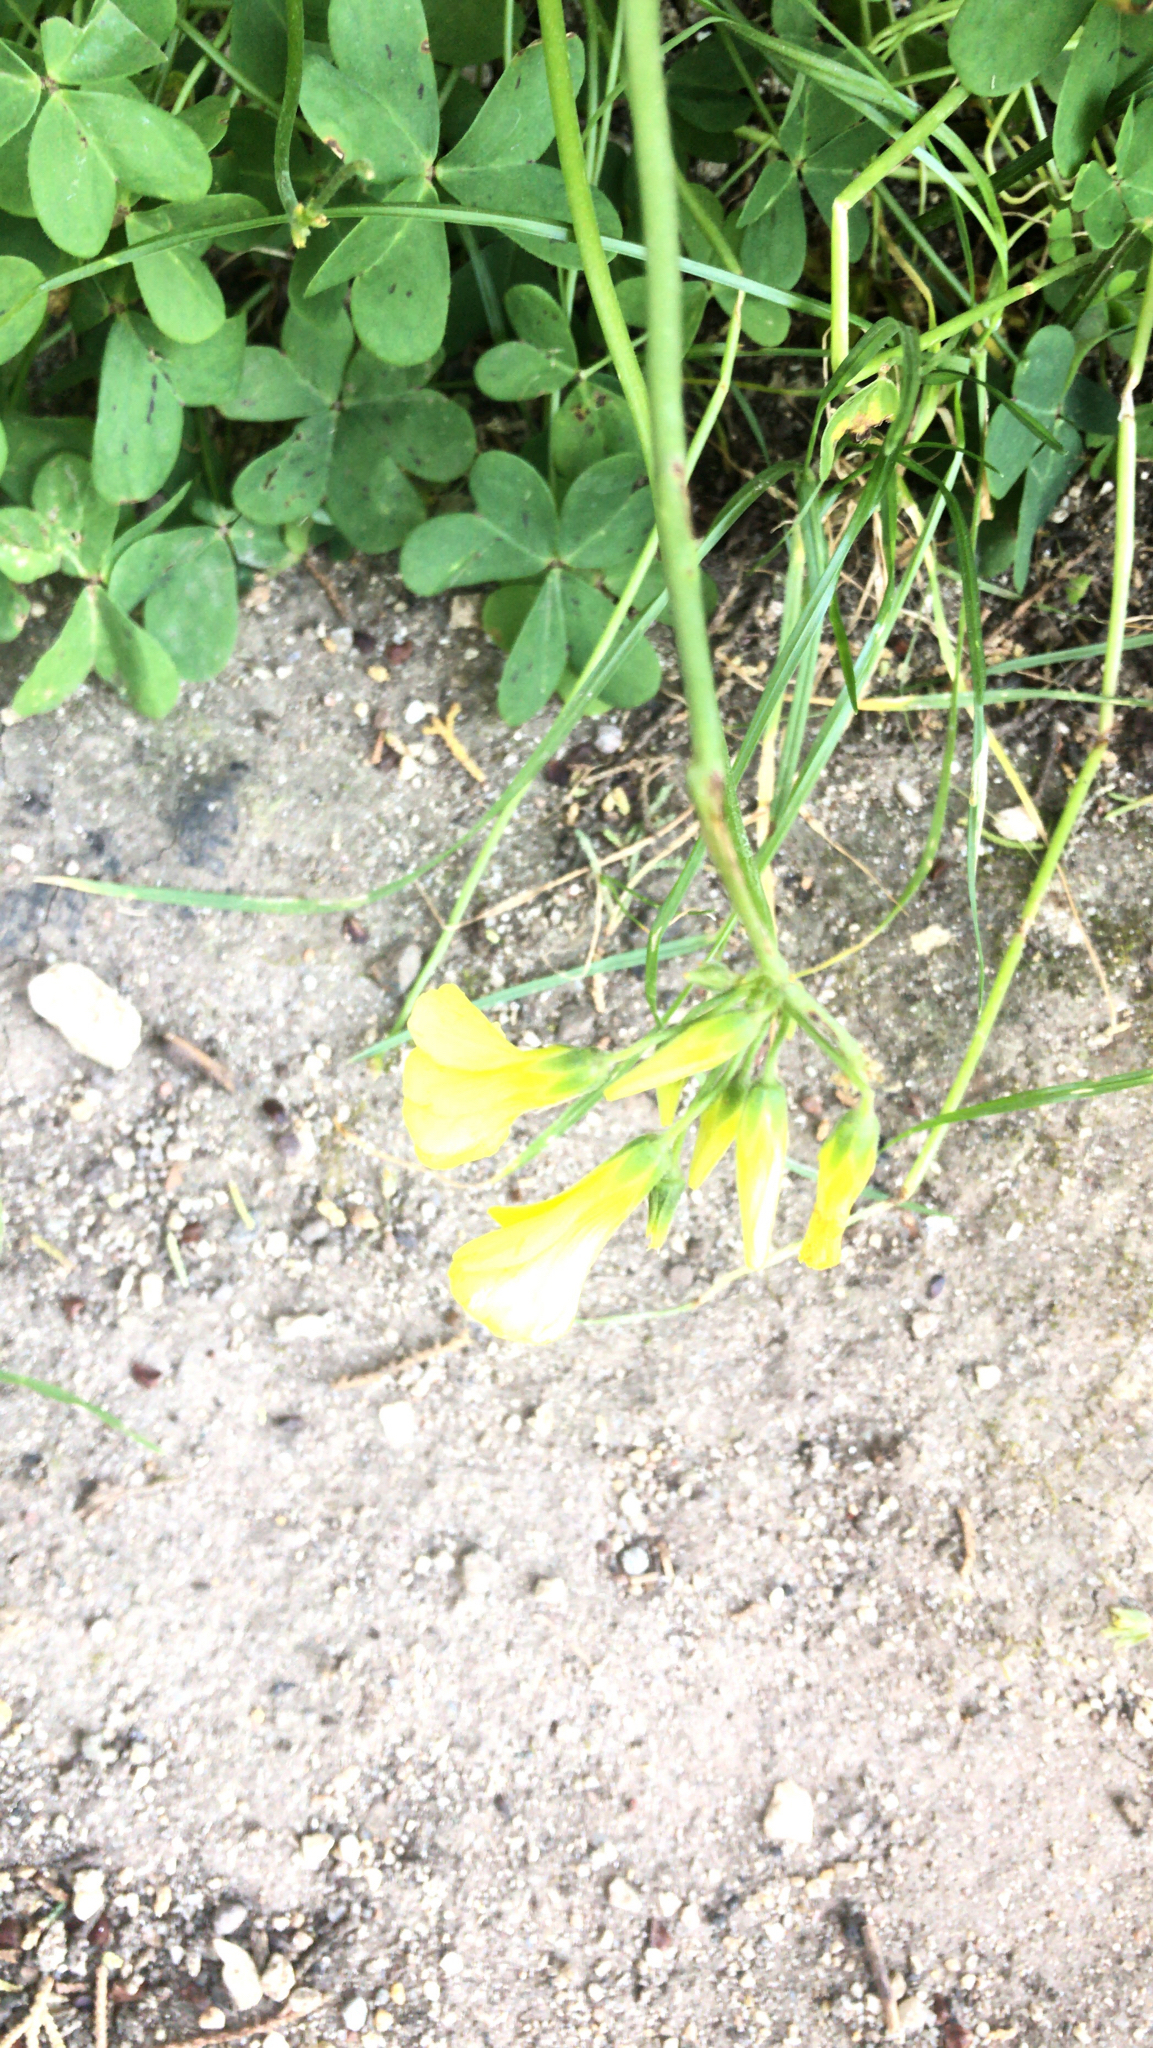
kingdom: Plantae
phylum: Tracheophyta
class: Magnoliopsida
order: Oxalidales
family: Oxalidaceae
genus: Oxalis
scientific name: Oxalis pes-caprae
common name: Bermuda-buttercup
